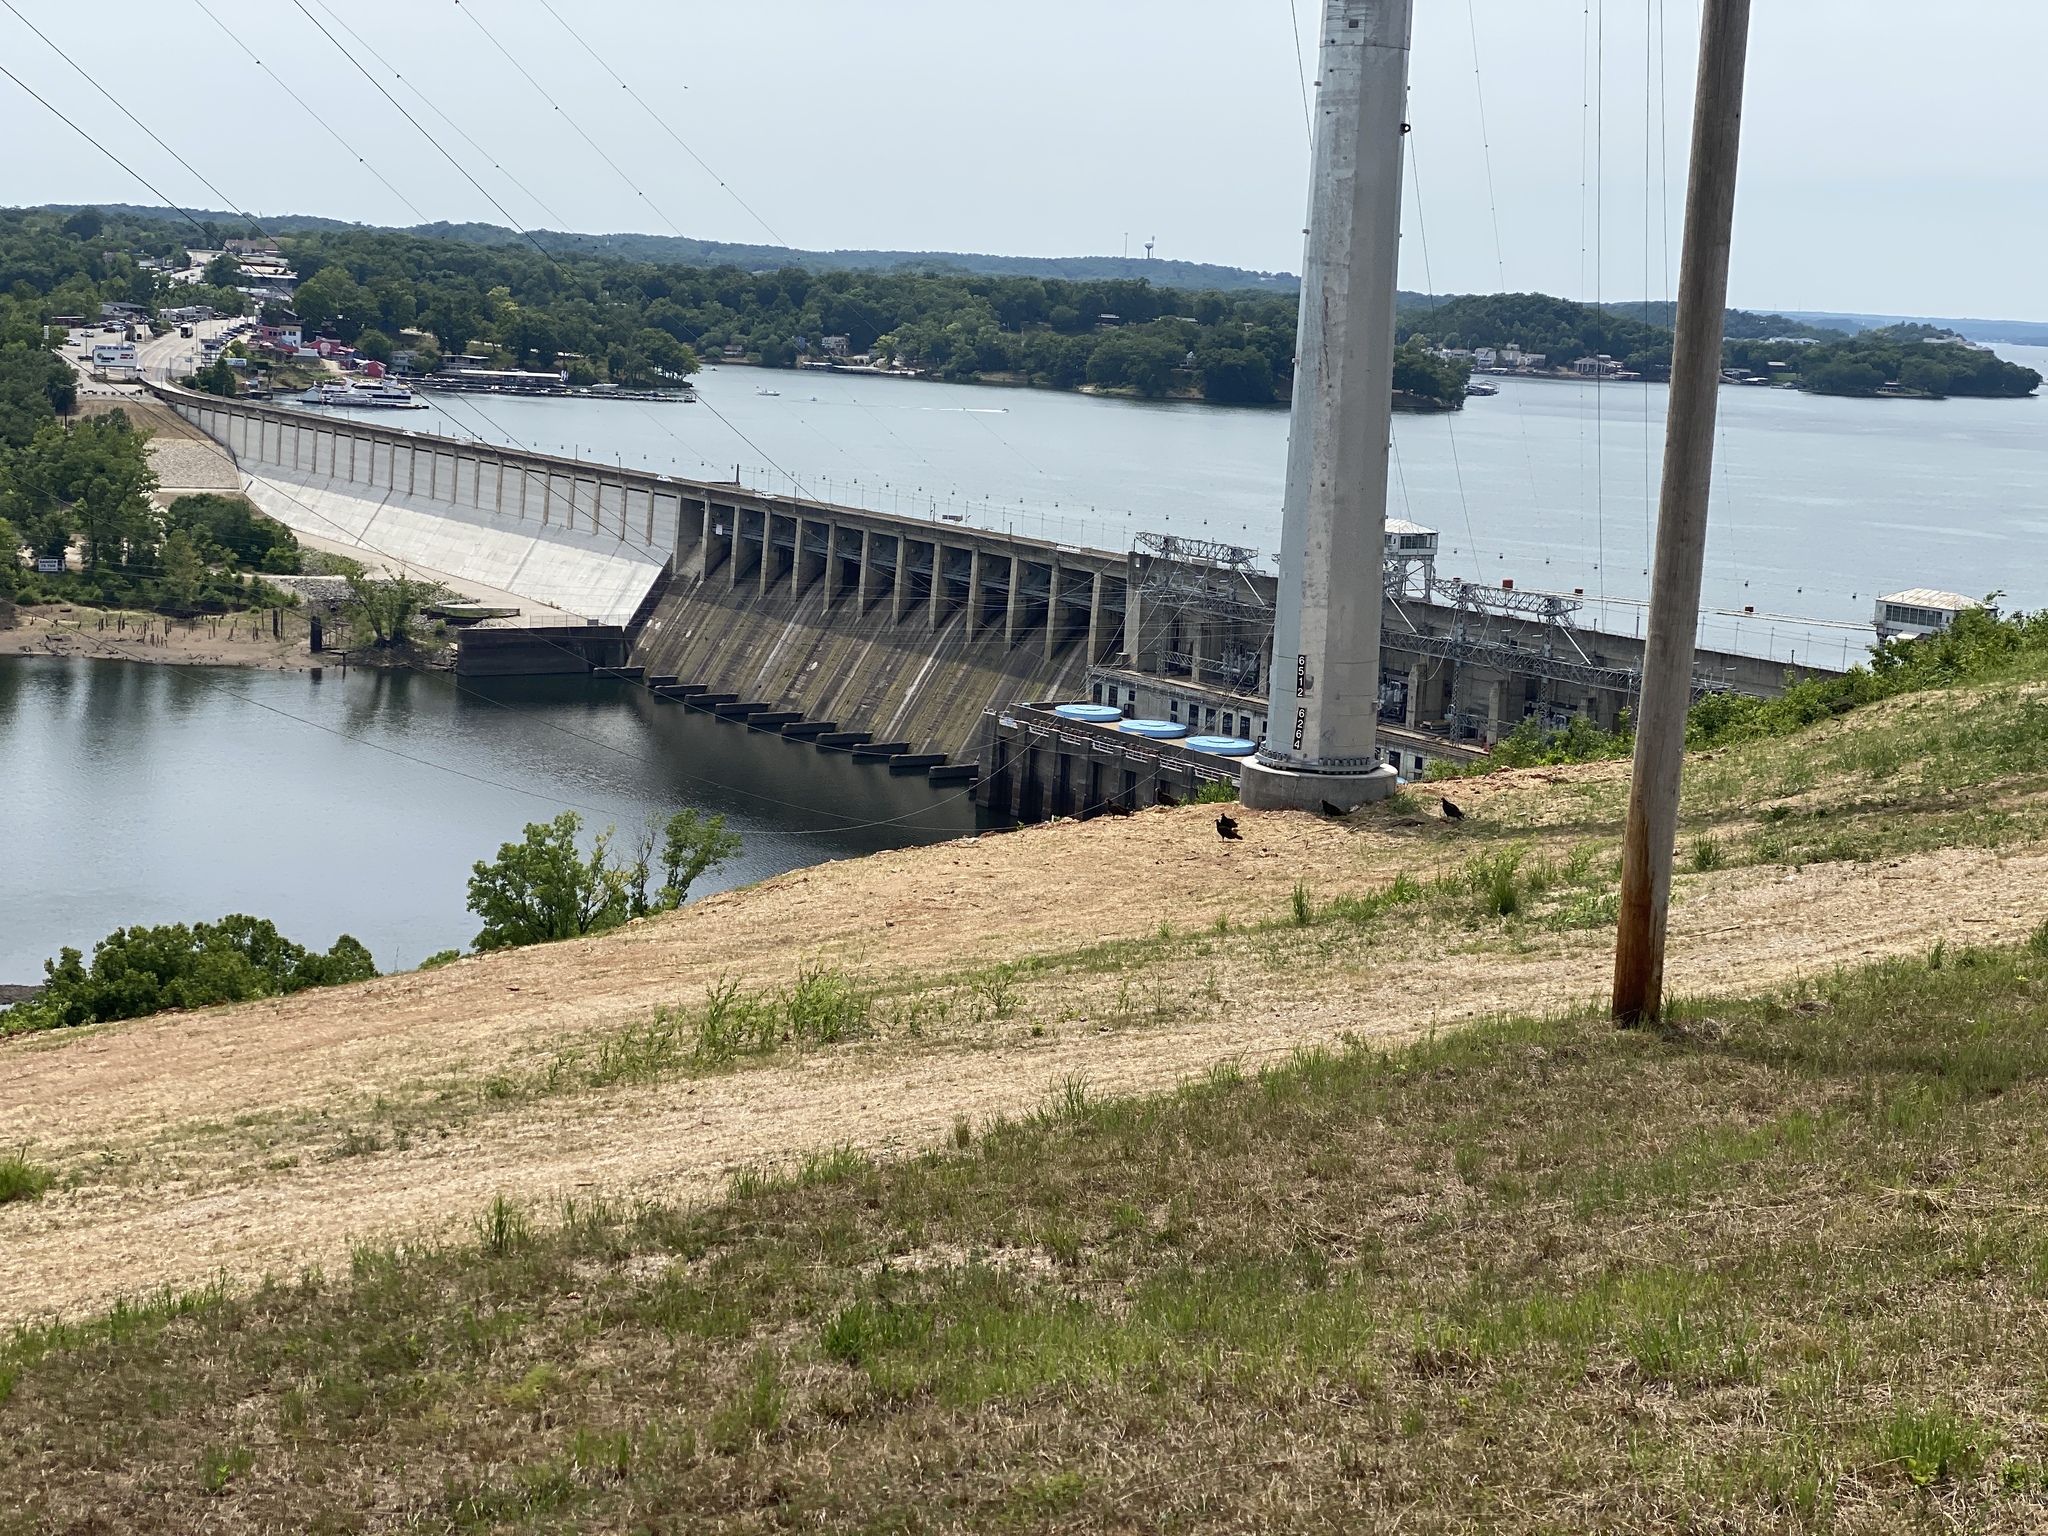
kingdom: Animalia
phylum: Chordata
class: Aves
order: Accipitriformes
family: Cathartidae
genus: Cathartes
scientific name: Cathartes aura
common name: Turkey vulture
